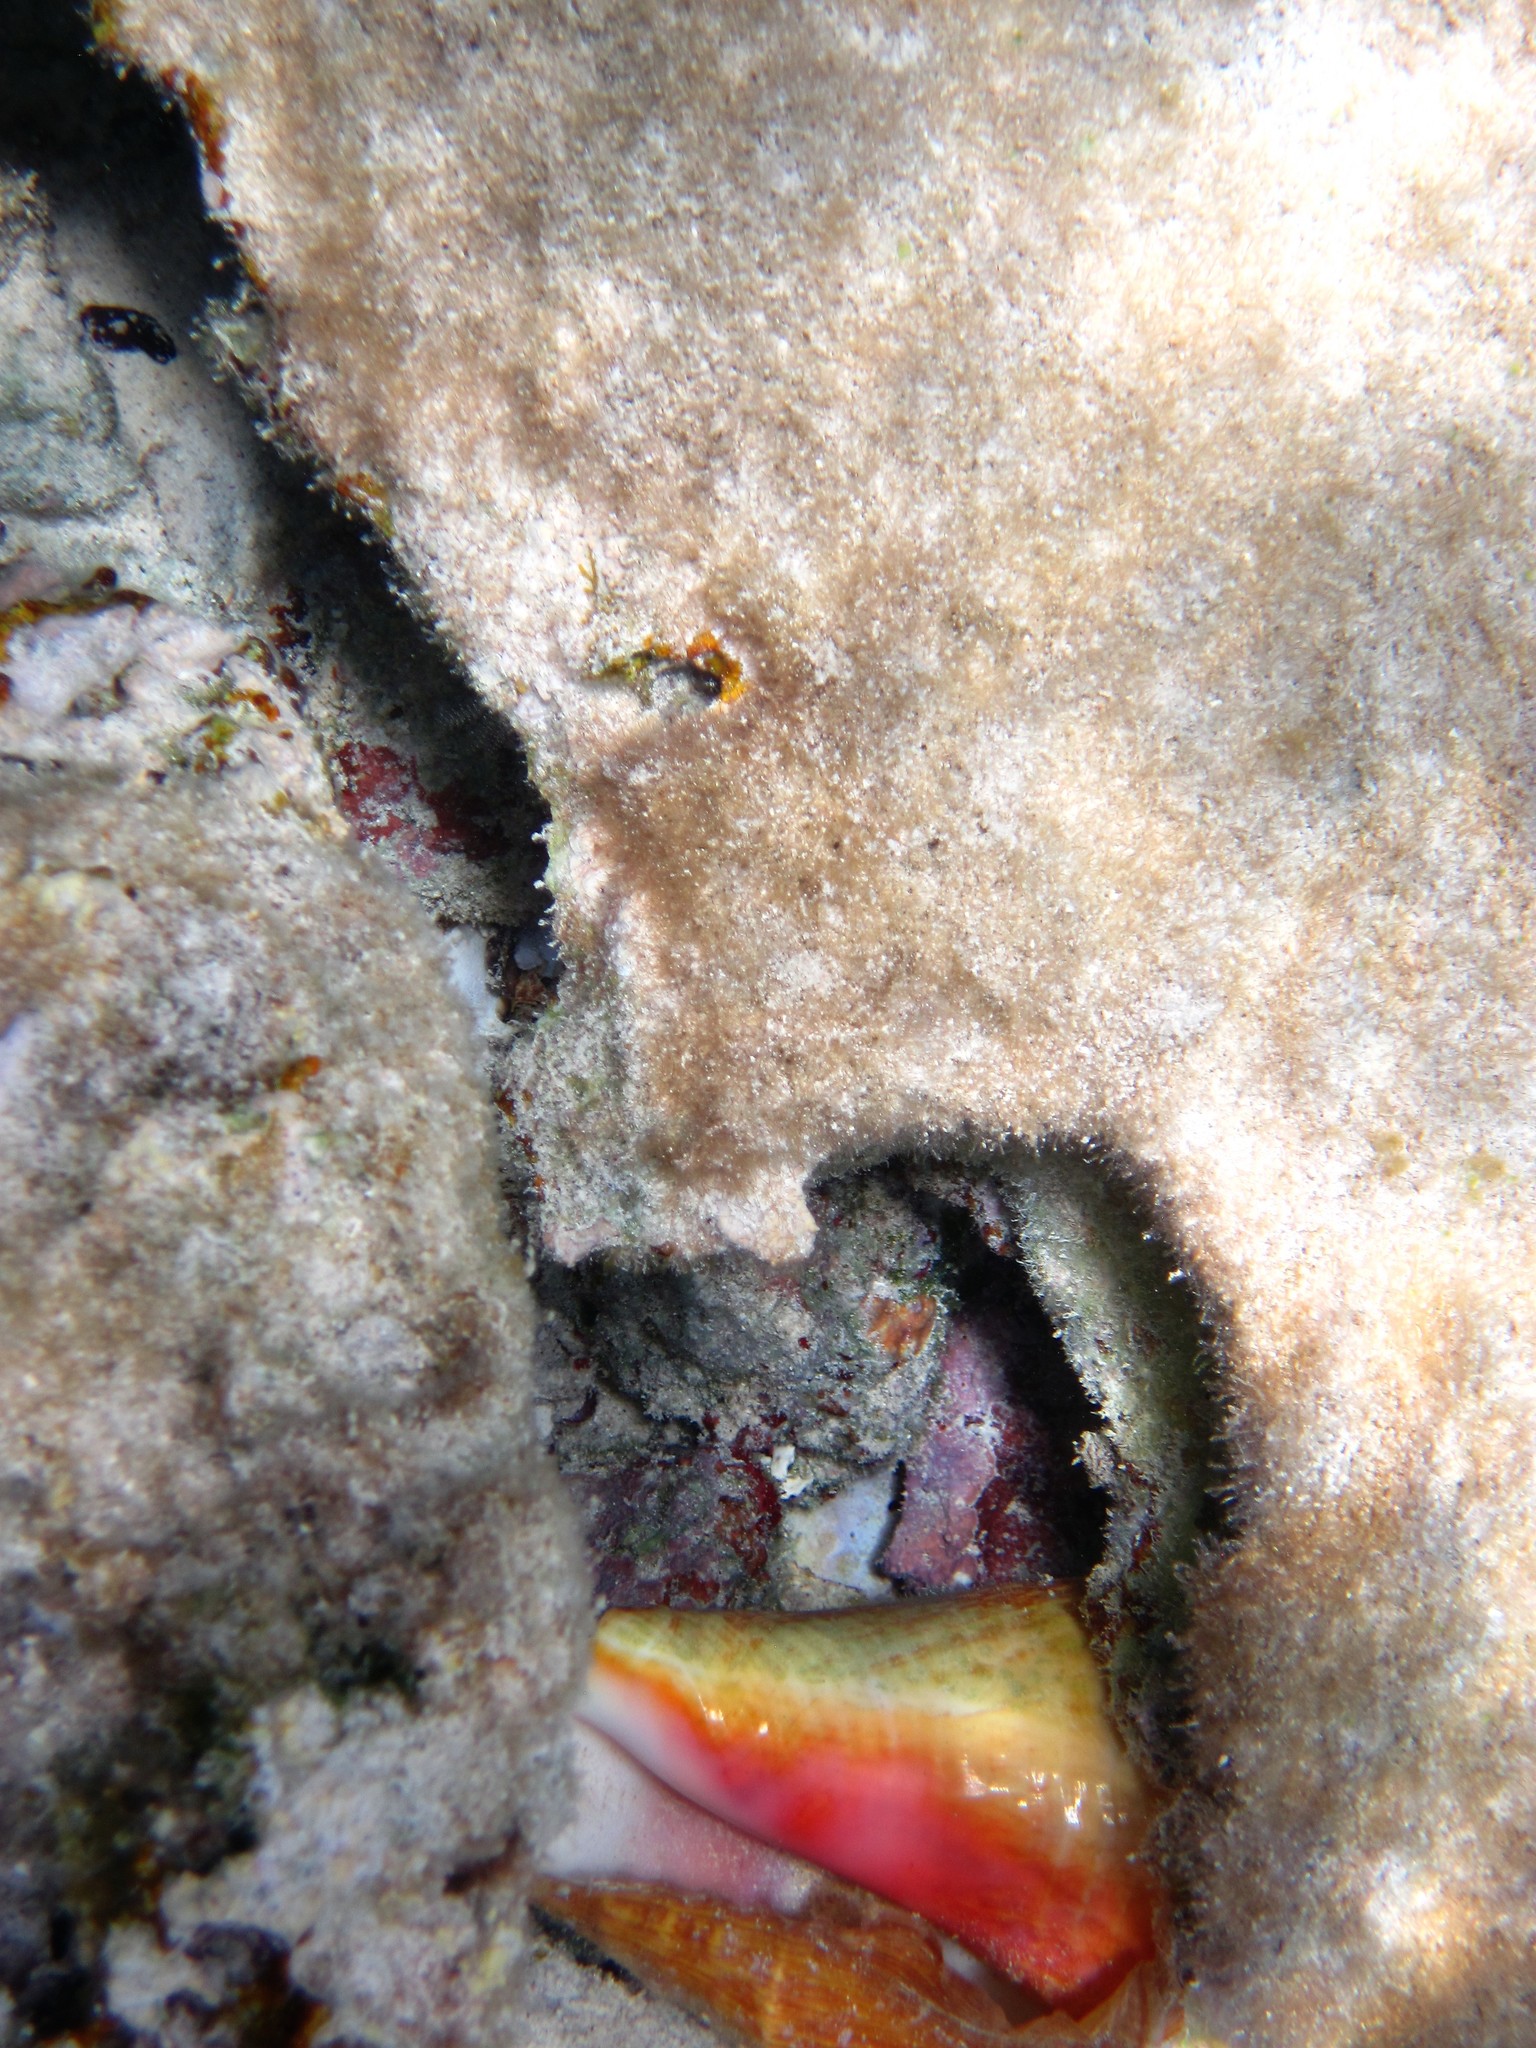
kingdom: Animalia
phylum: Mollusca
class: Gastropoda
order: Littorinimorpha
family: Strombidae
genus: Aliger
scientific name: Aliger gigas
